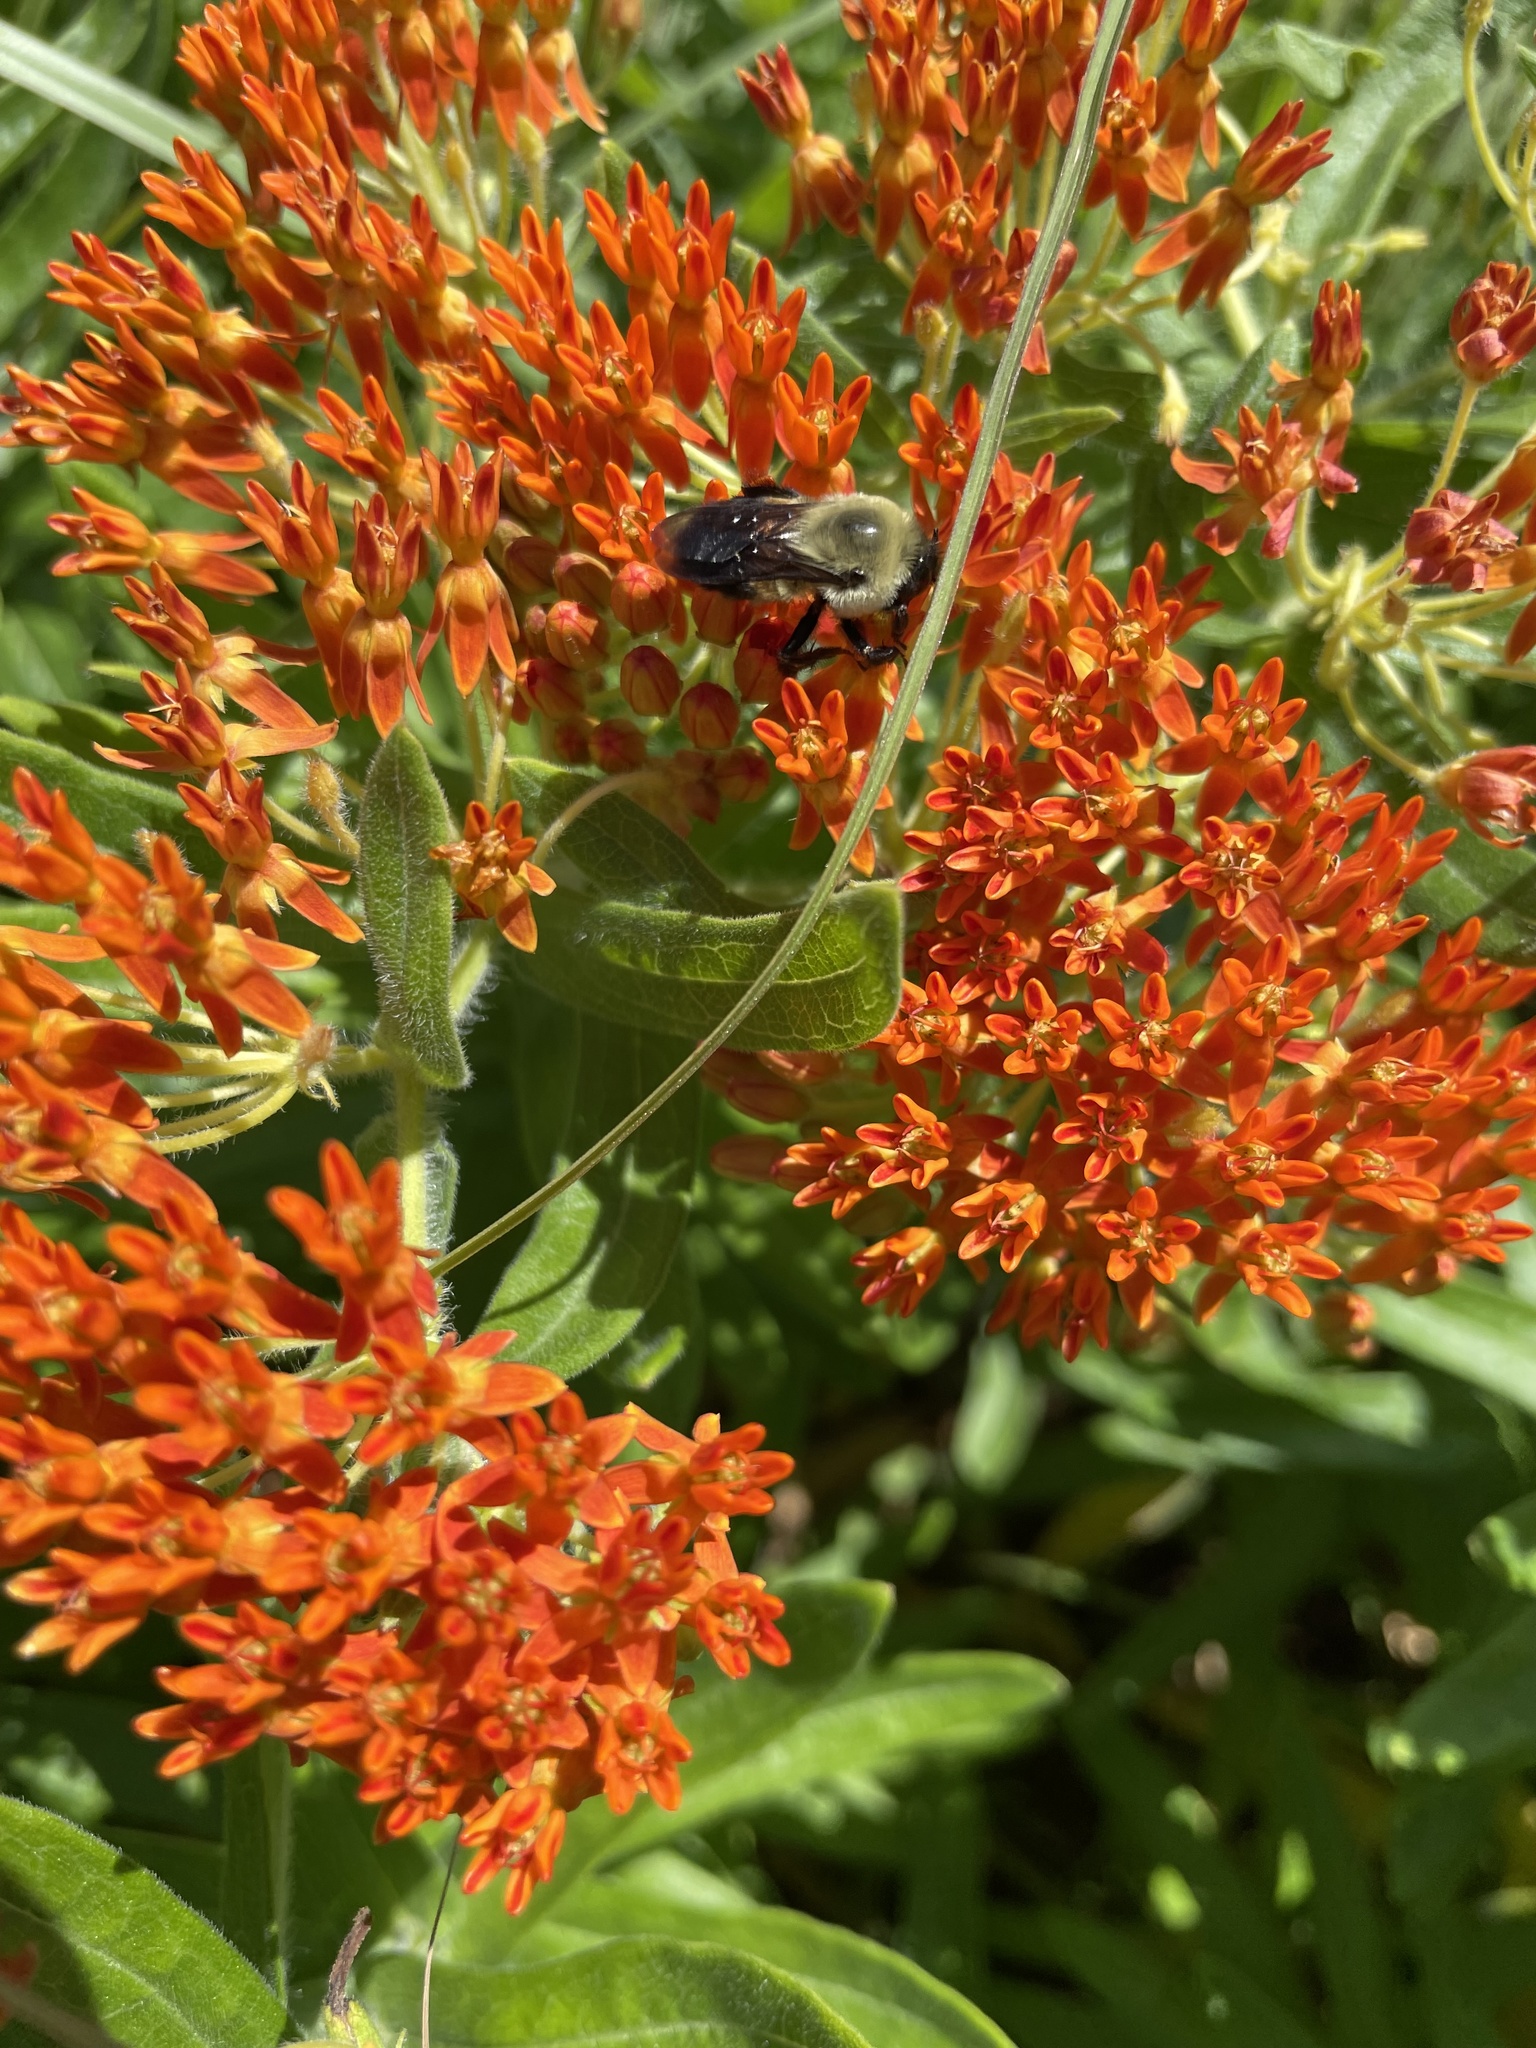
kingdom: Animalia
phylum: Arthropoda
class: Insecta
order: Hymenoptera
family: Apidae
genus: Bombus
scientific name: Bombus griseocollis
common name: Brown-belted bumble bee
